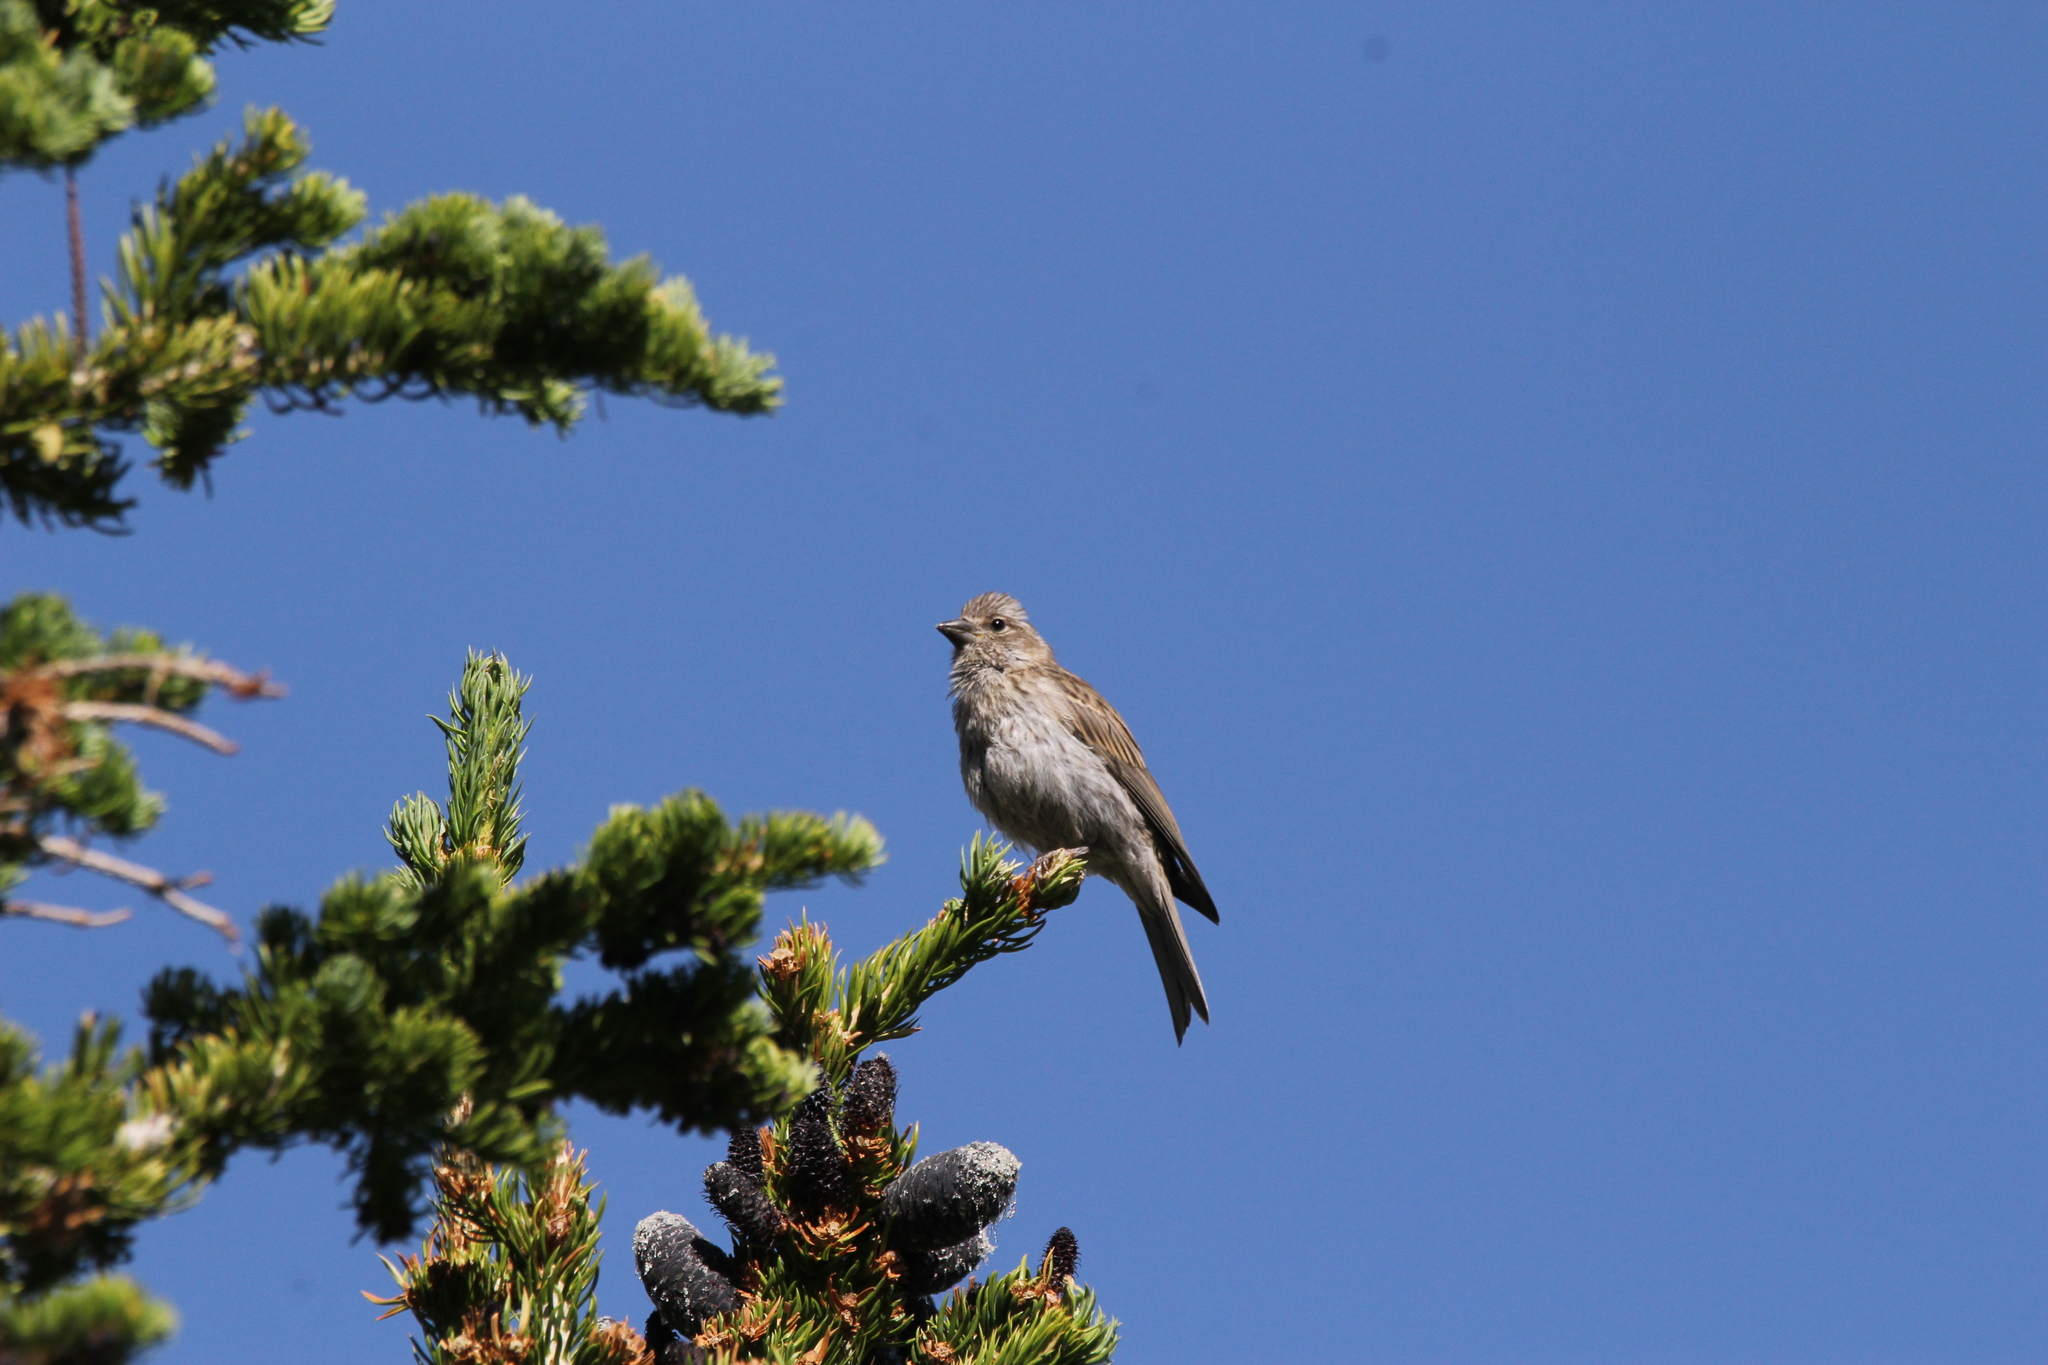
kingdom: Animalia
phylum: Chordata
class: Aves
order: Passeriformes
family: Fringillidae
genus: Haemorhous
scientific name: Haemorhous cassinii
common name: Cassin's finch
